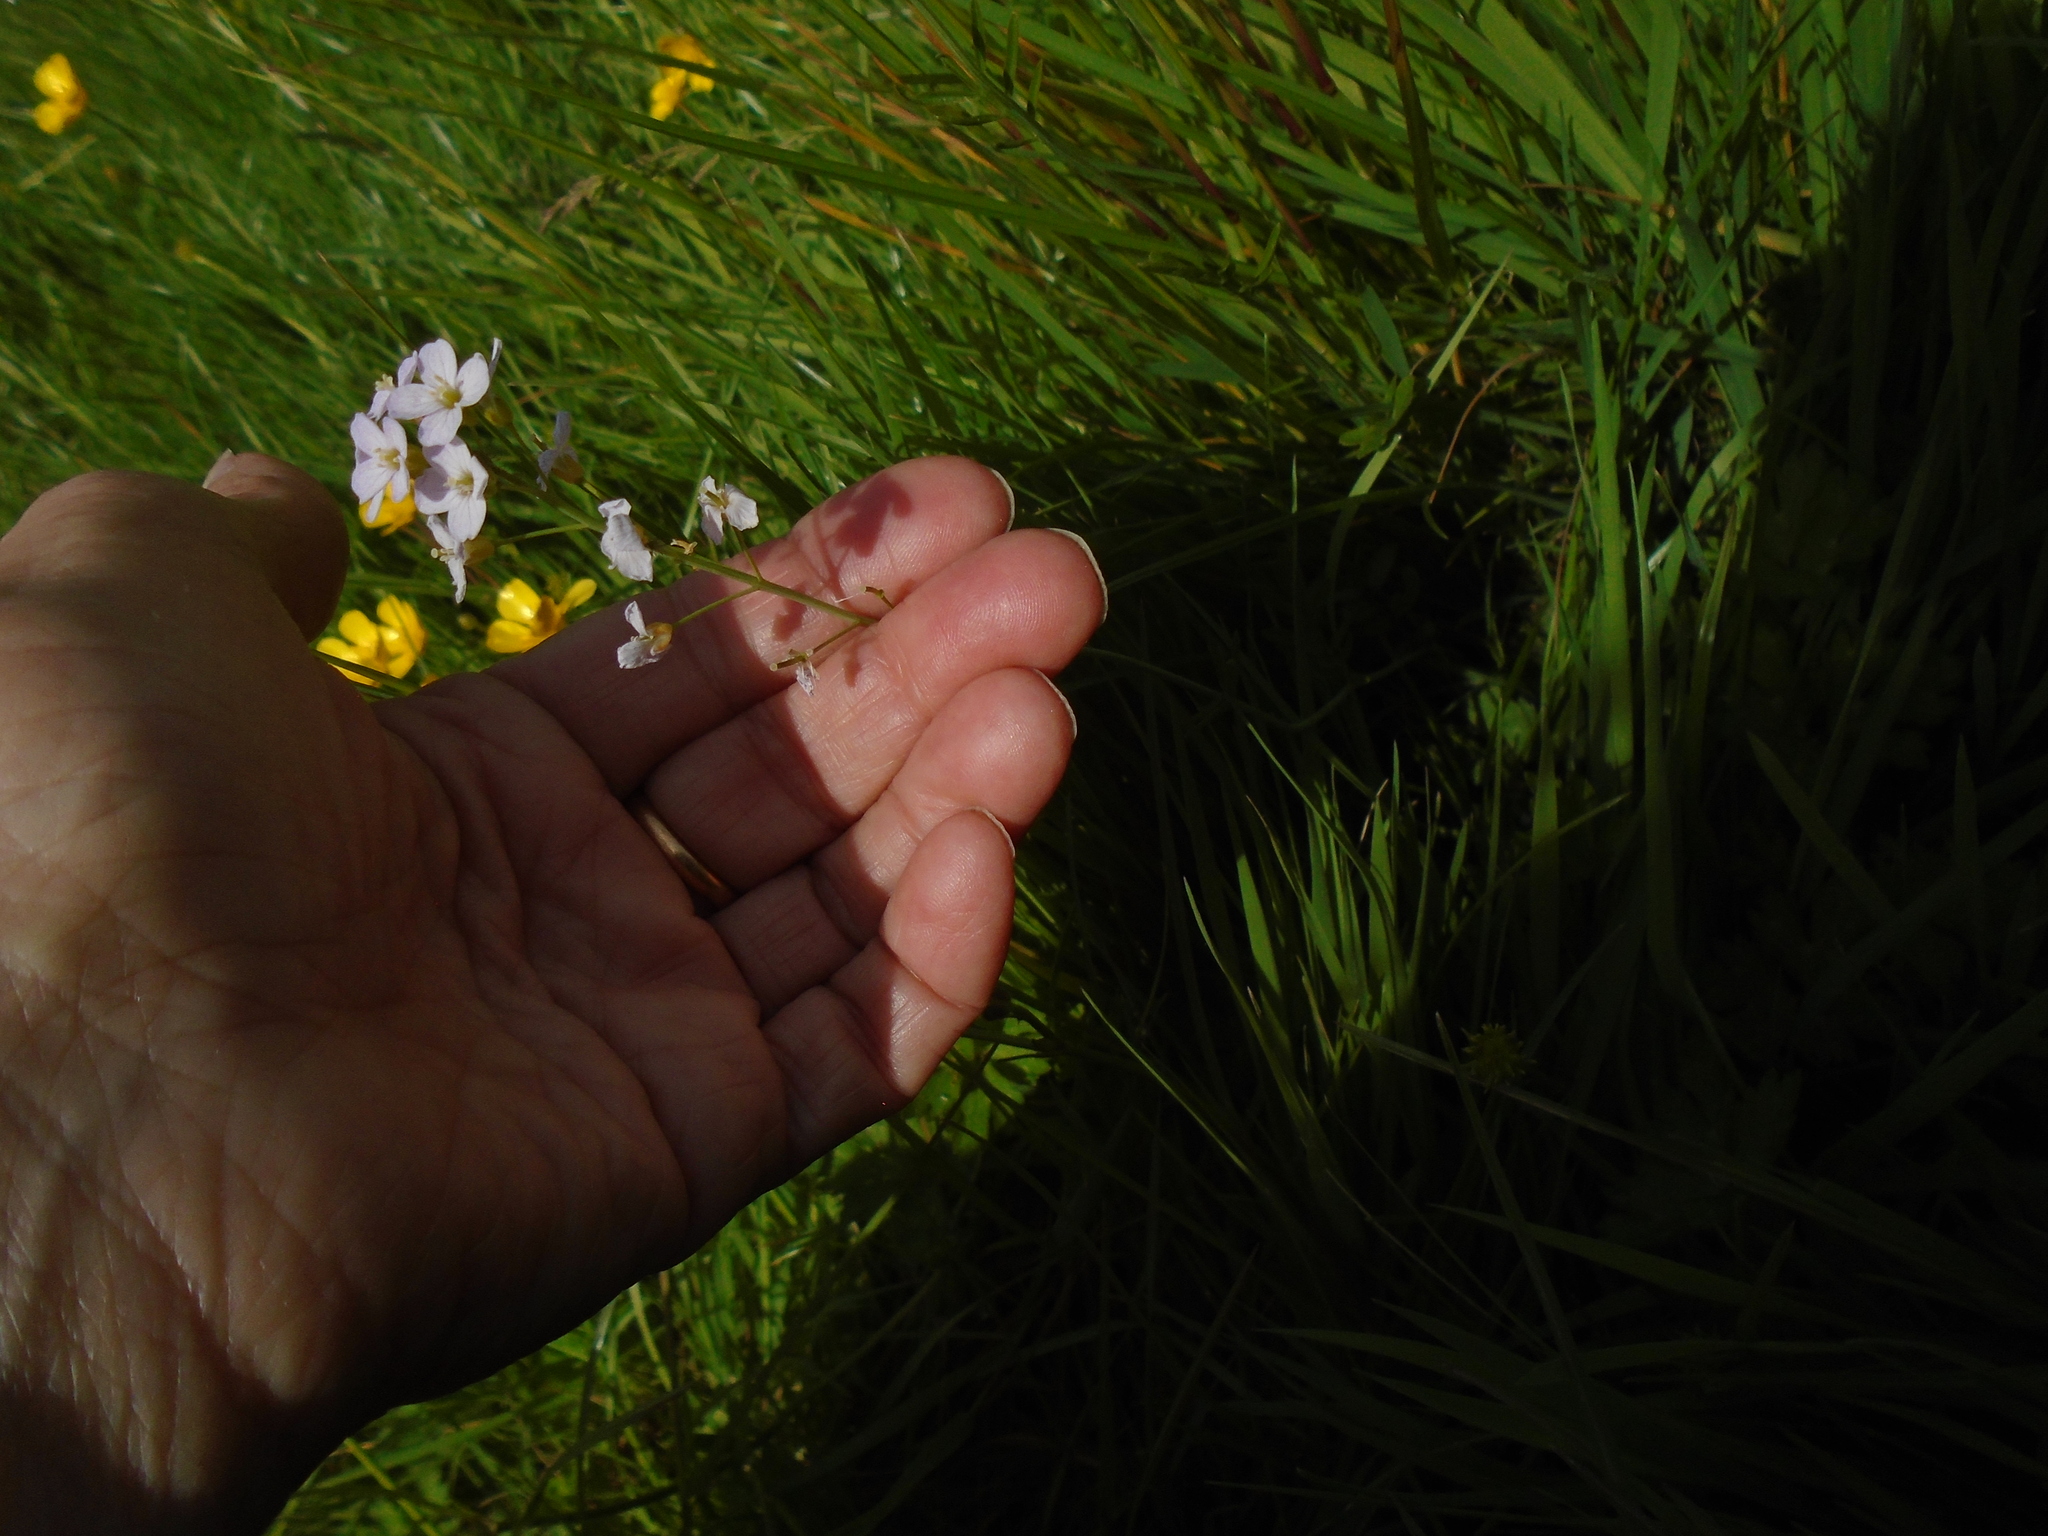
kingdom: Plantae
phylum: Tracheophyta
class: Magnoliopsida
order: Brassicales
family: Brassicaceae
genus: Cardamine
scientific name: Cardamine pratensis
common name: Cuckoo flower
